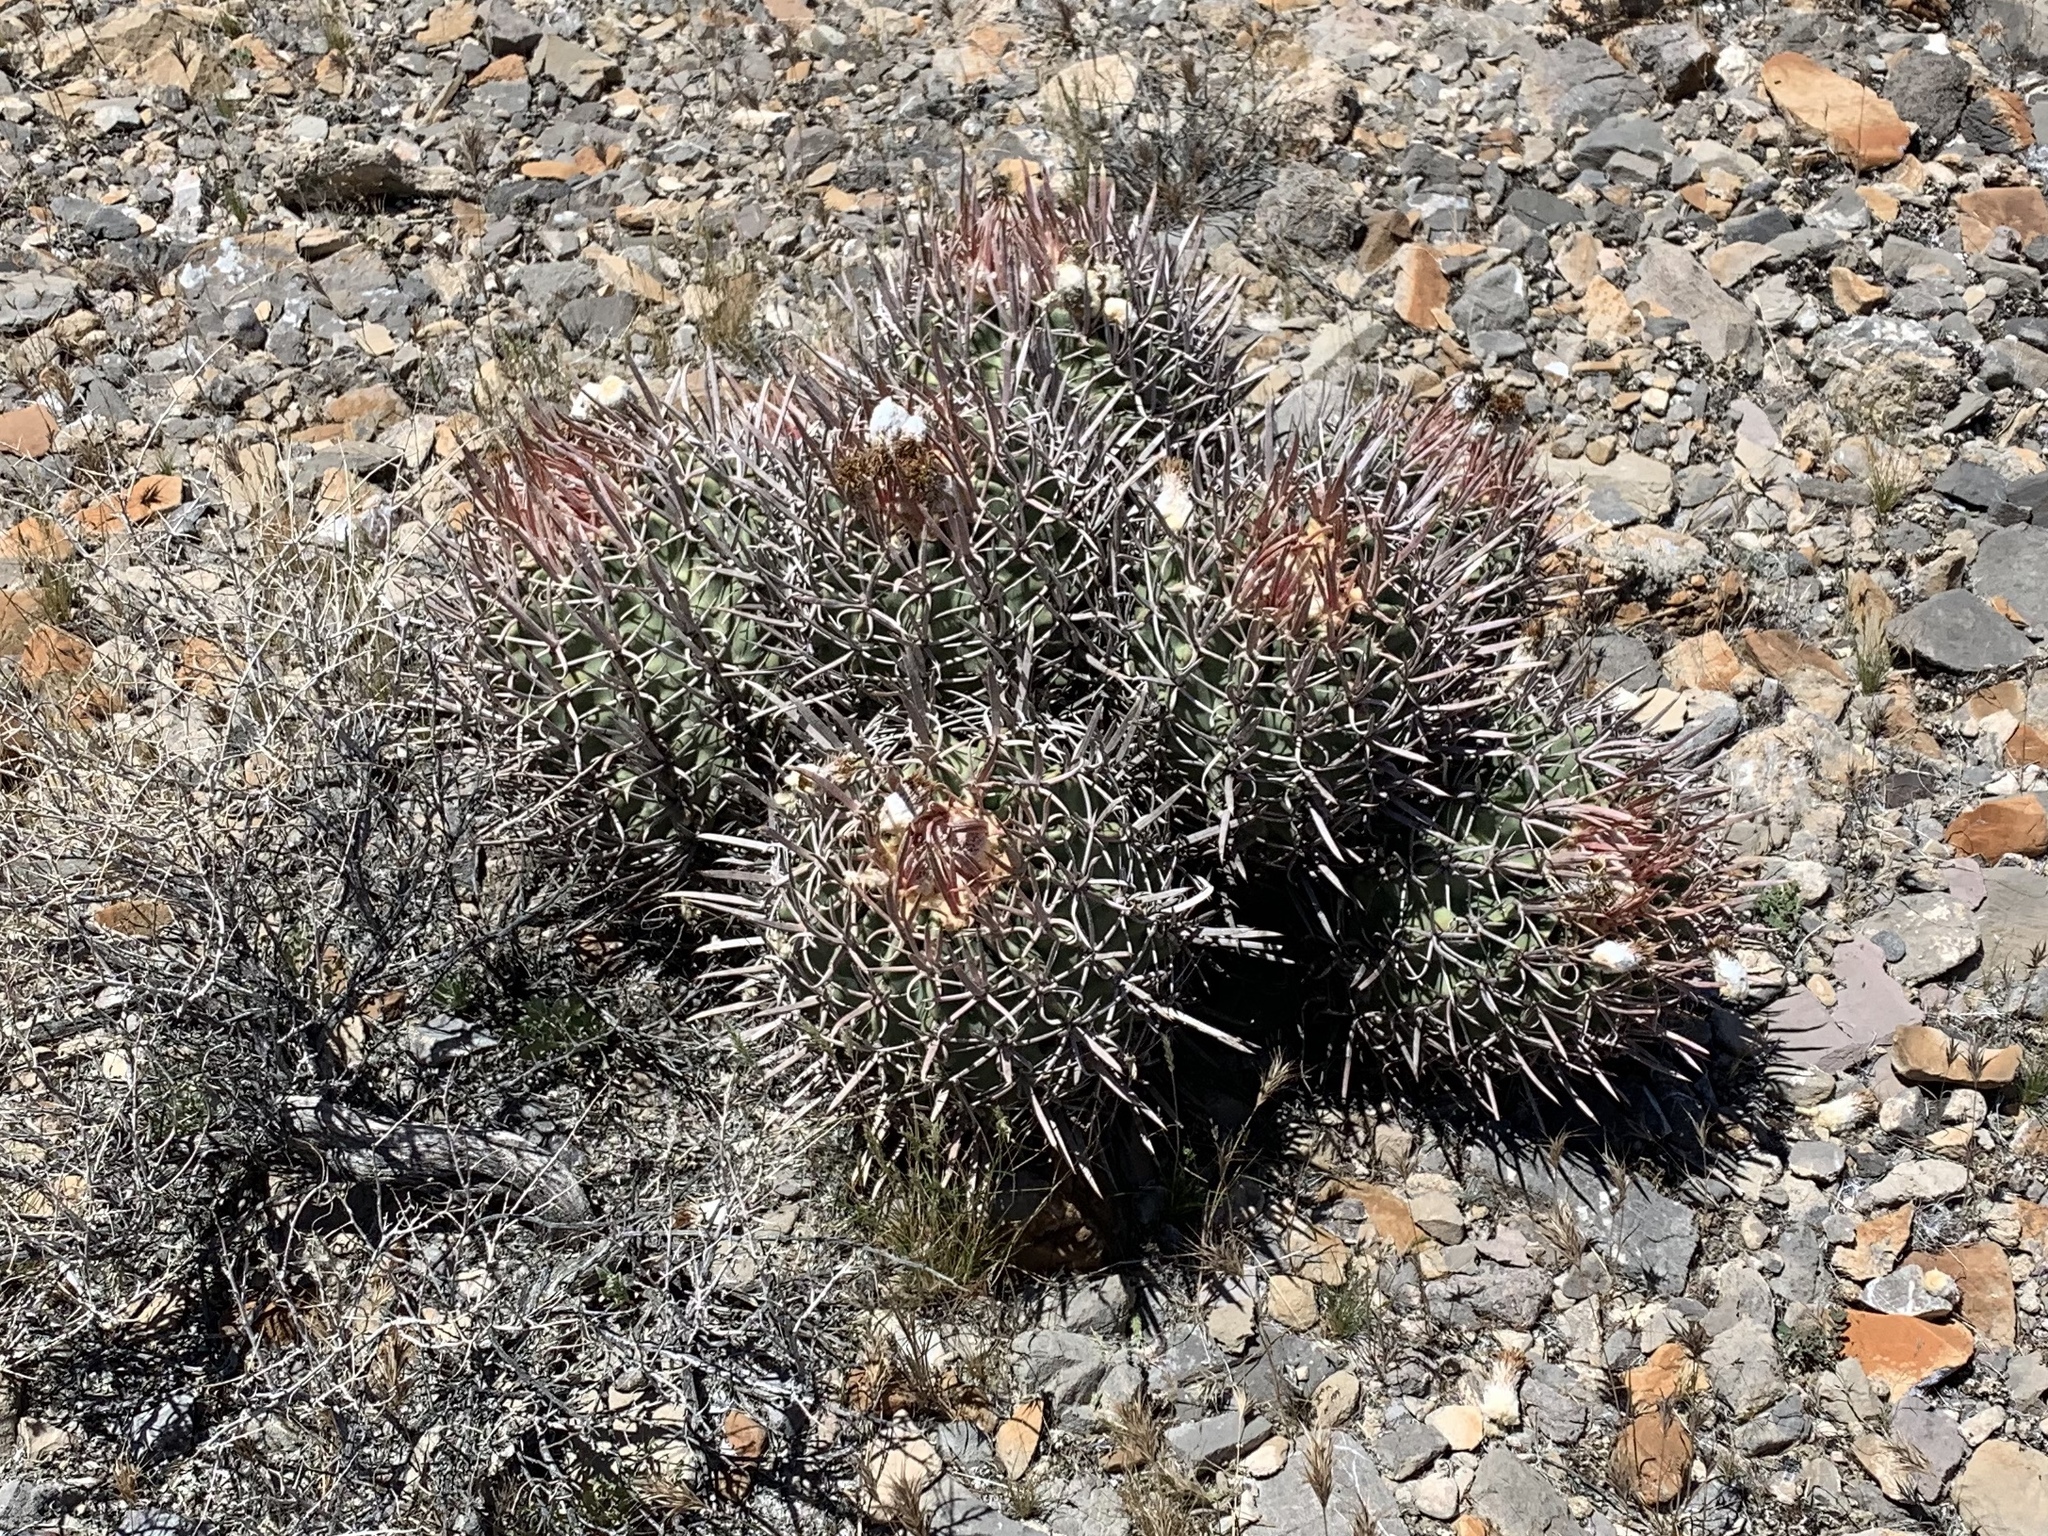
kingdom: Plantae
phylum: Tracheophyta
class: Magnoliopsida
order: Caryophyllales
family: Cactaceae
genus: Echinocactus
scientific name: Echinocactus polycephalus
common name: Cottontop cactus
